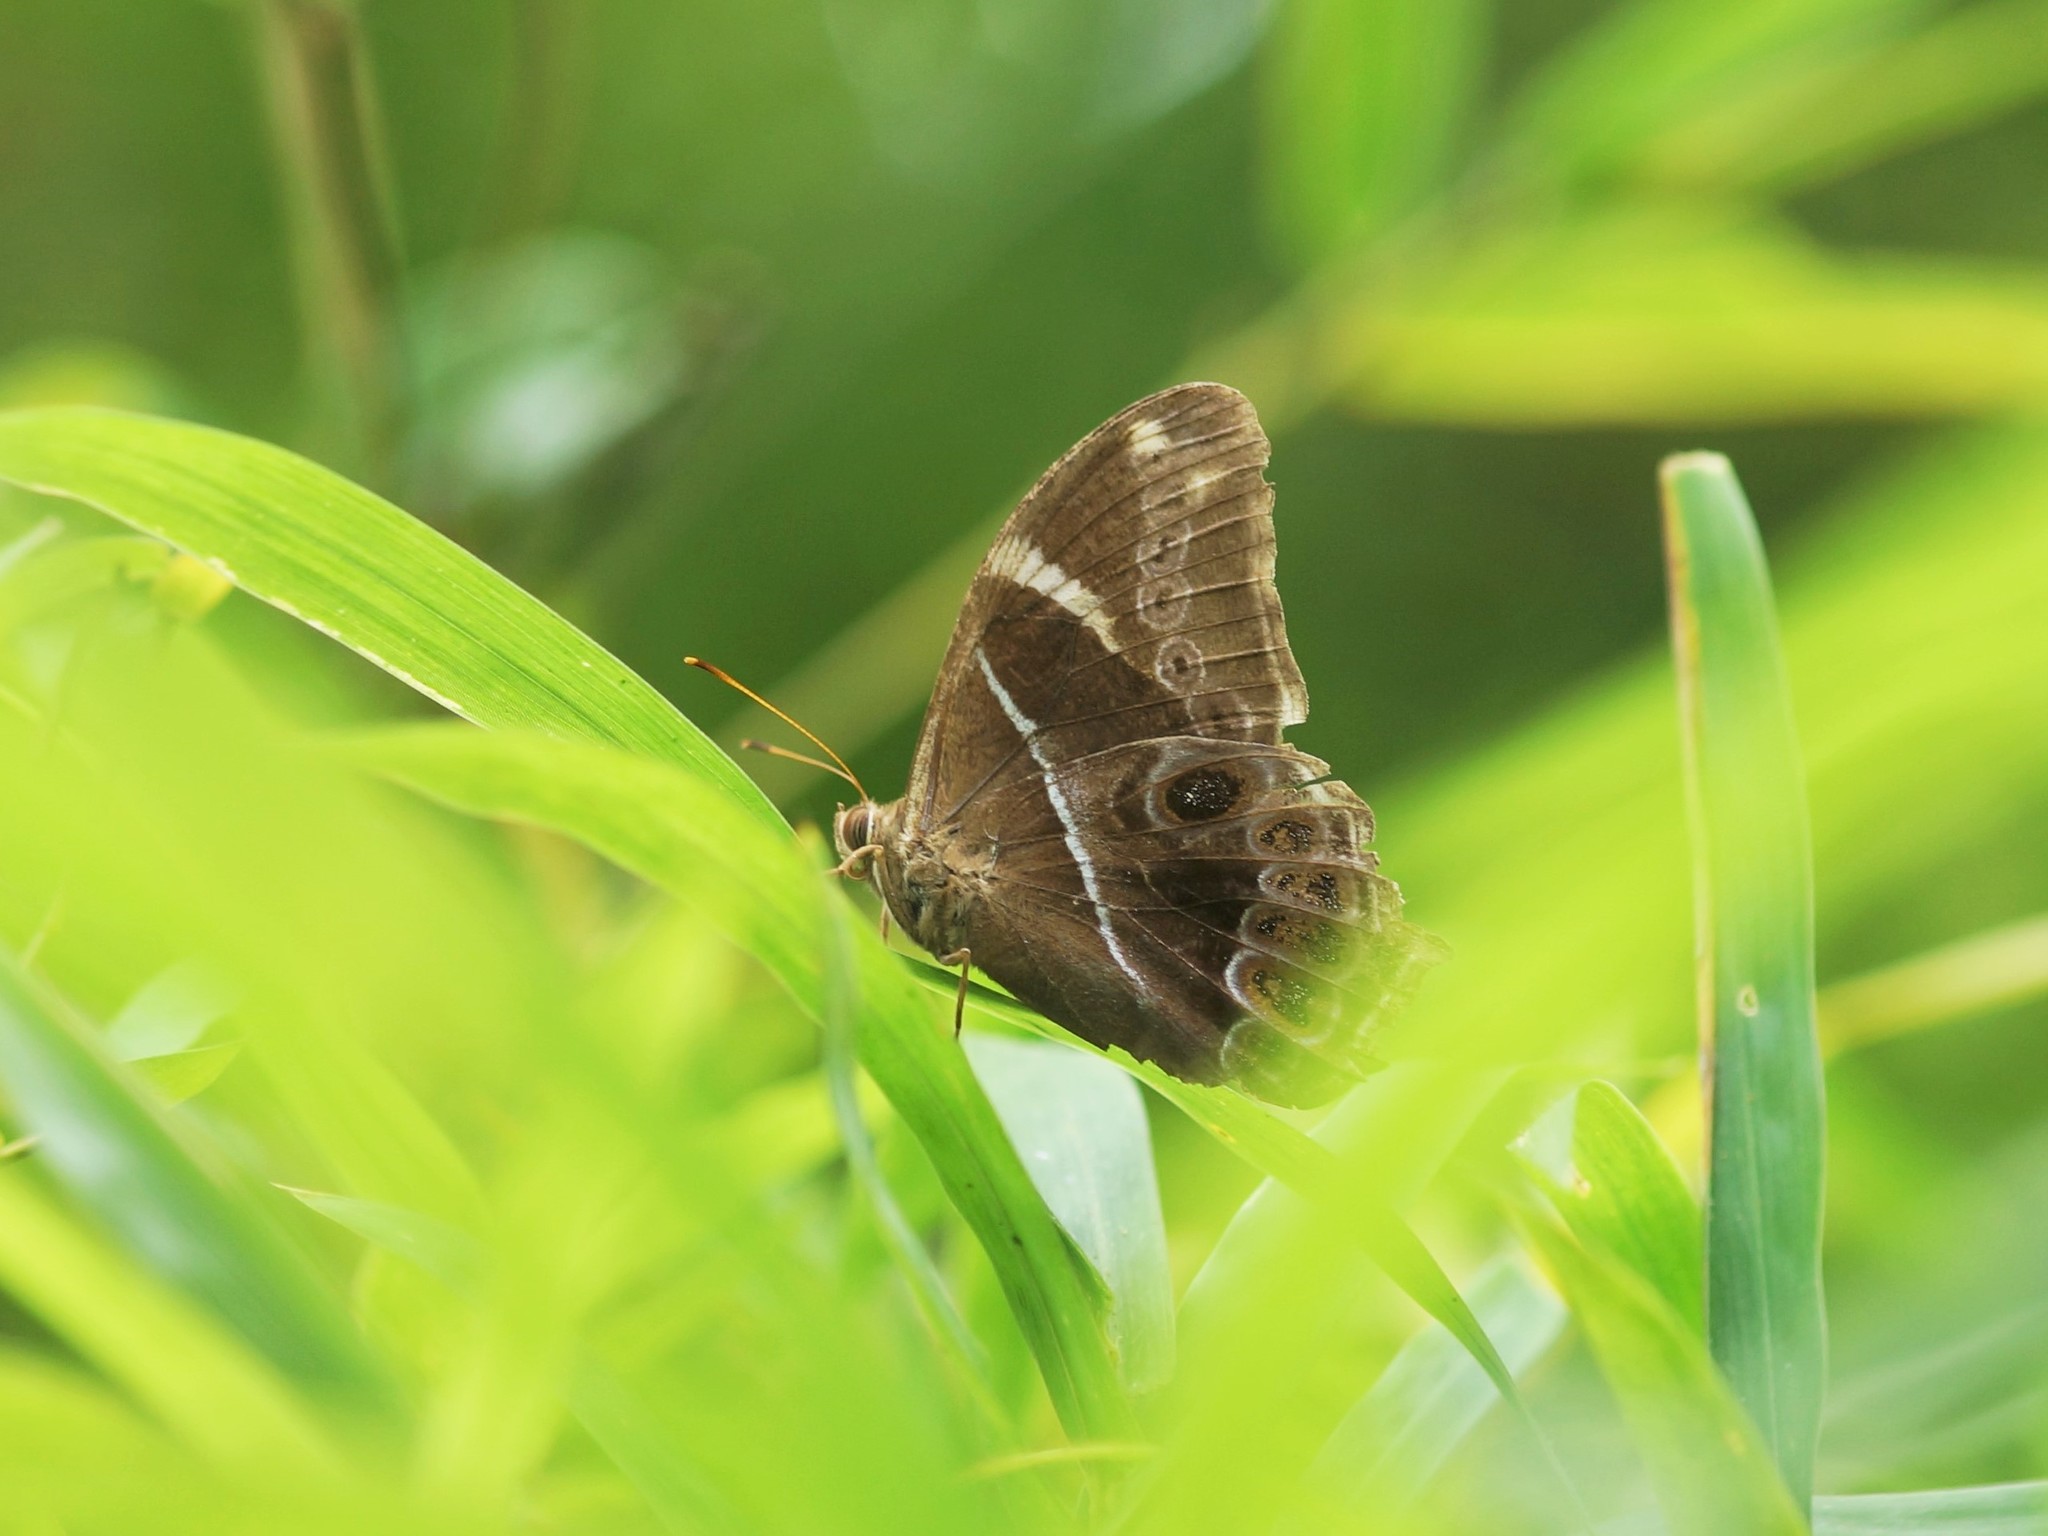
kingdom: Animalia
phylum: Arthropoda
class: Insecta
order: Lepidoptera
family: Nymphalidae
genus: Lethe
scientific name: Lethe europa
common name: Bamboo treebrown
